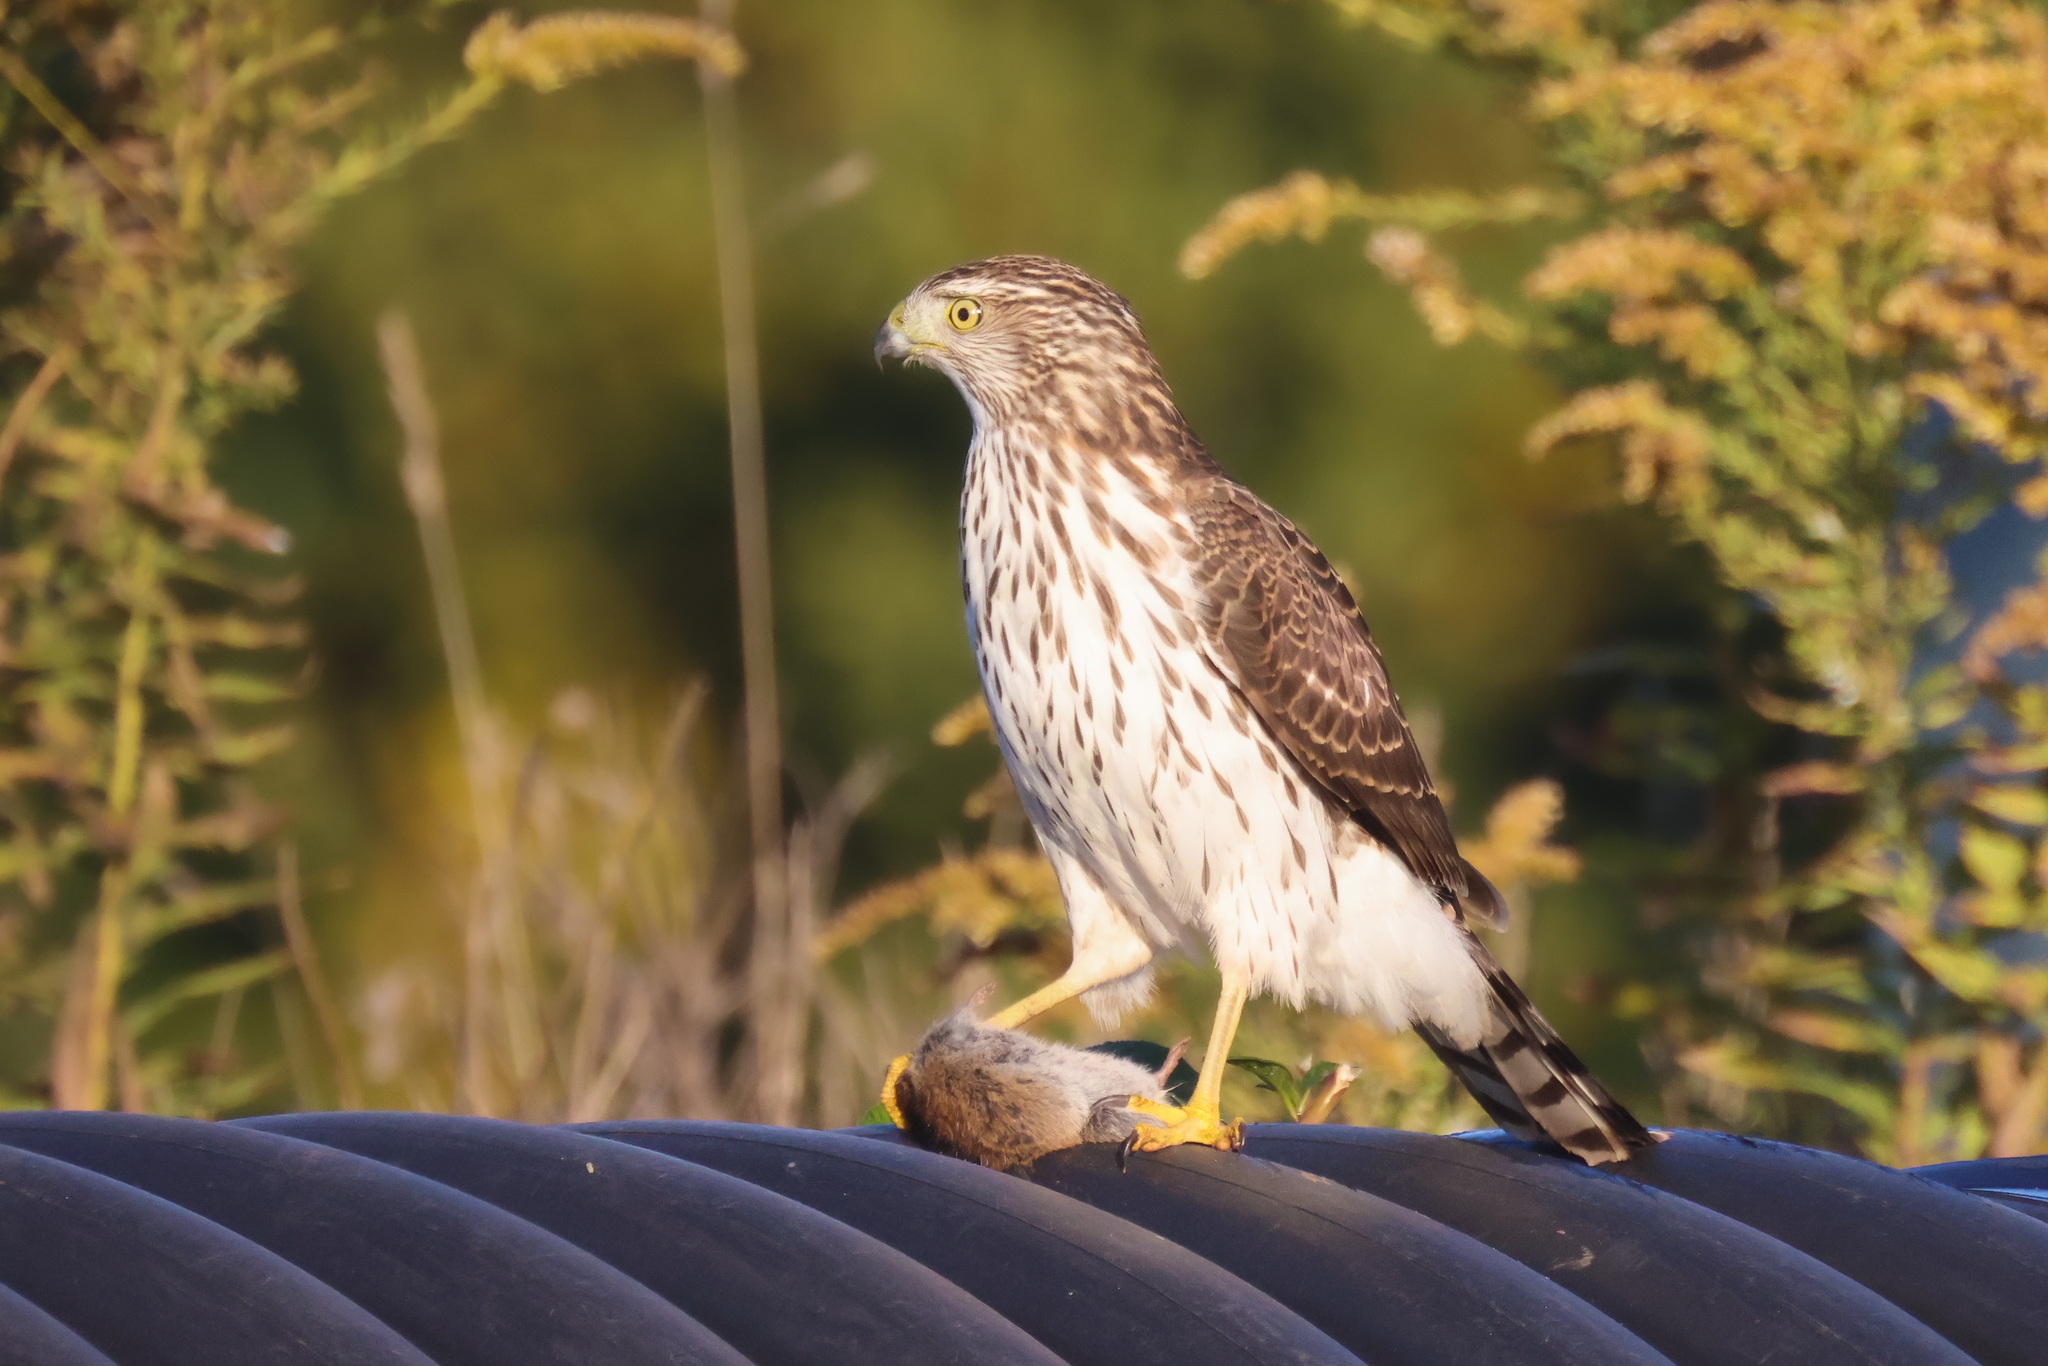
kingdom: Animalia
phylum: Chordata
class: Aves
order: Accipitriformes
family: Accipitridae
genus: Accipiter
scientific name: Accipiter cooperii
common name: Cooper's hawk
